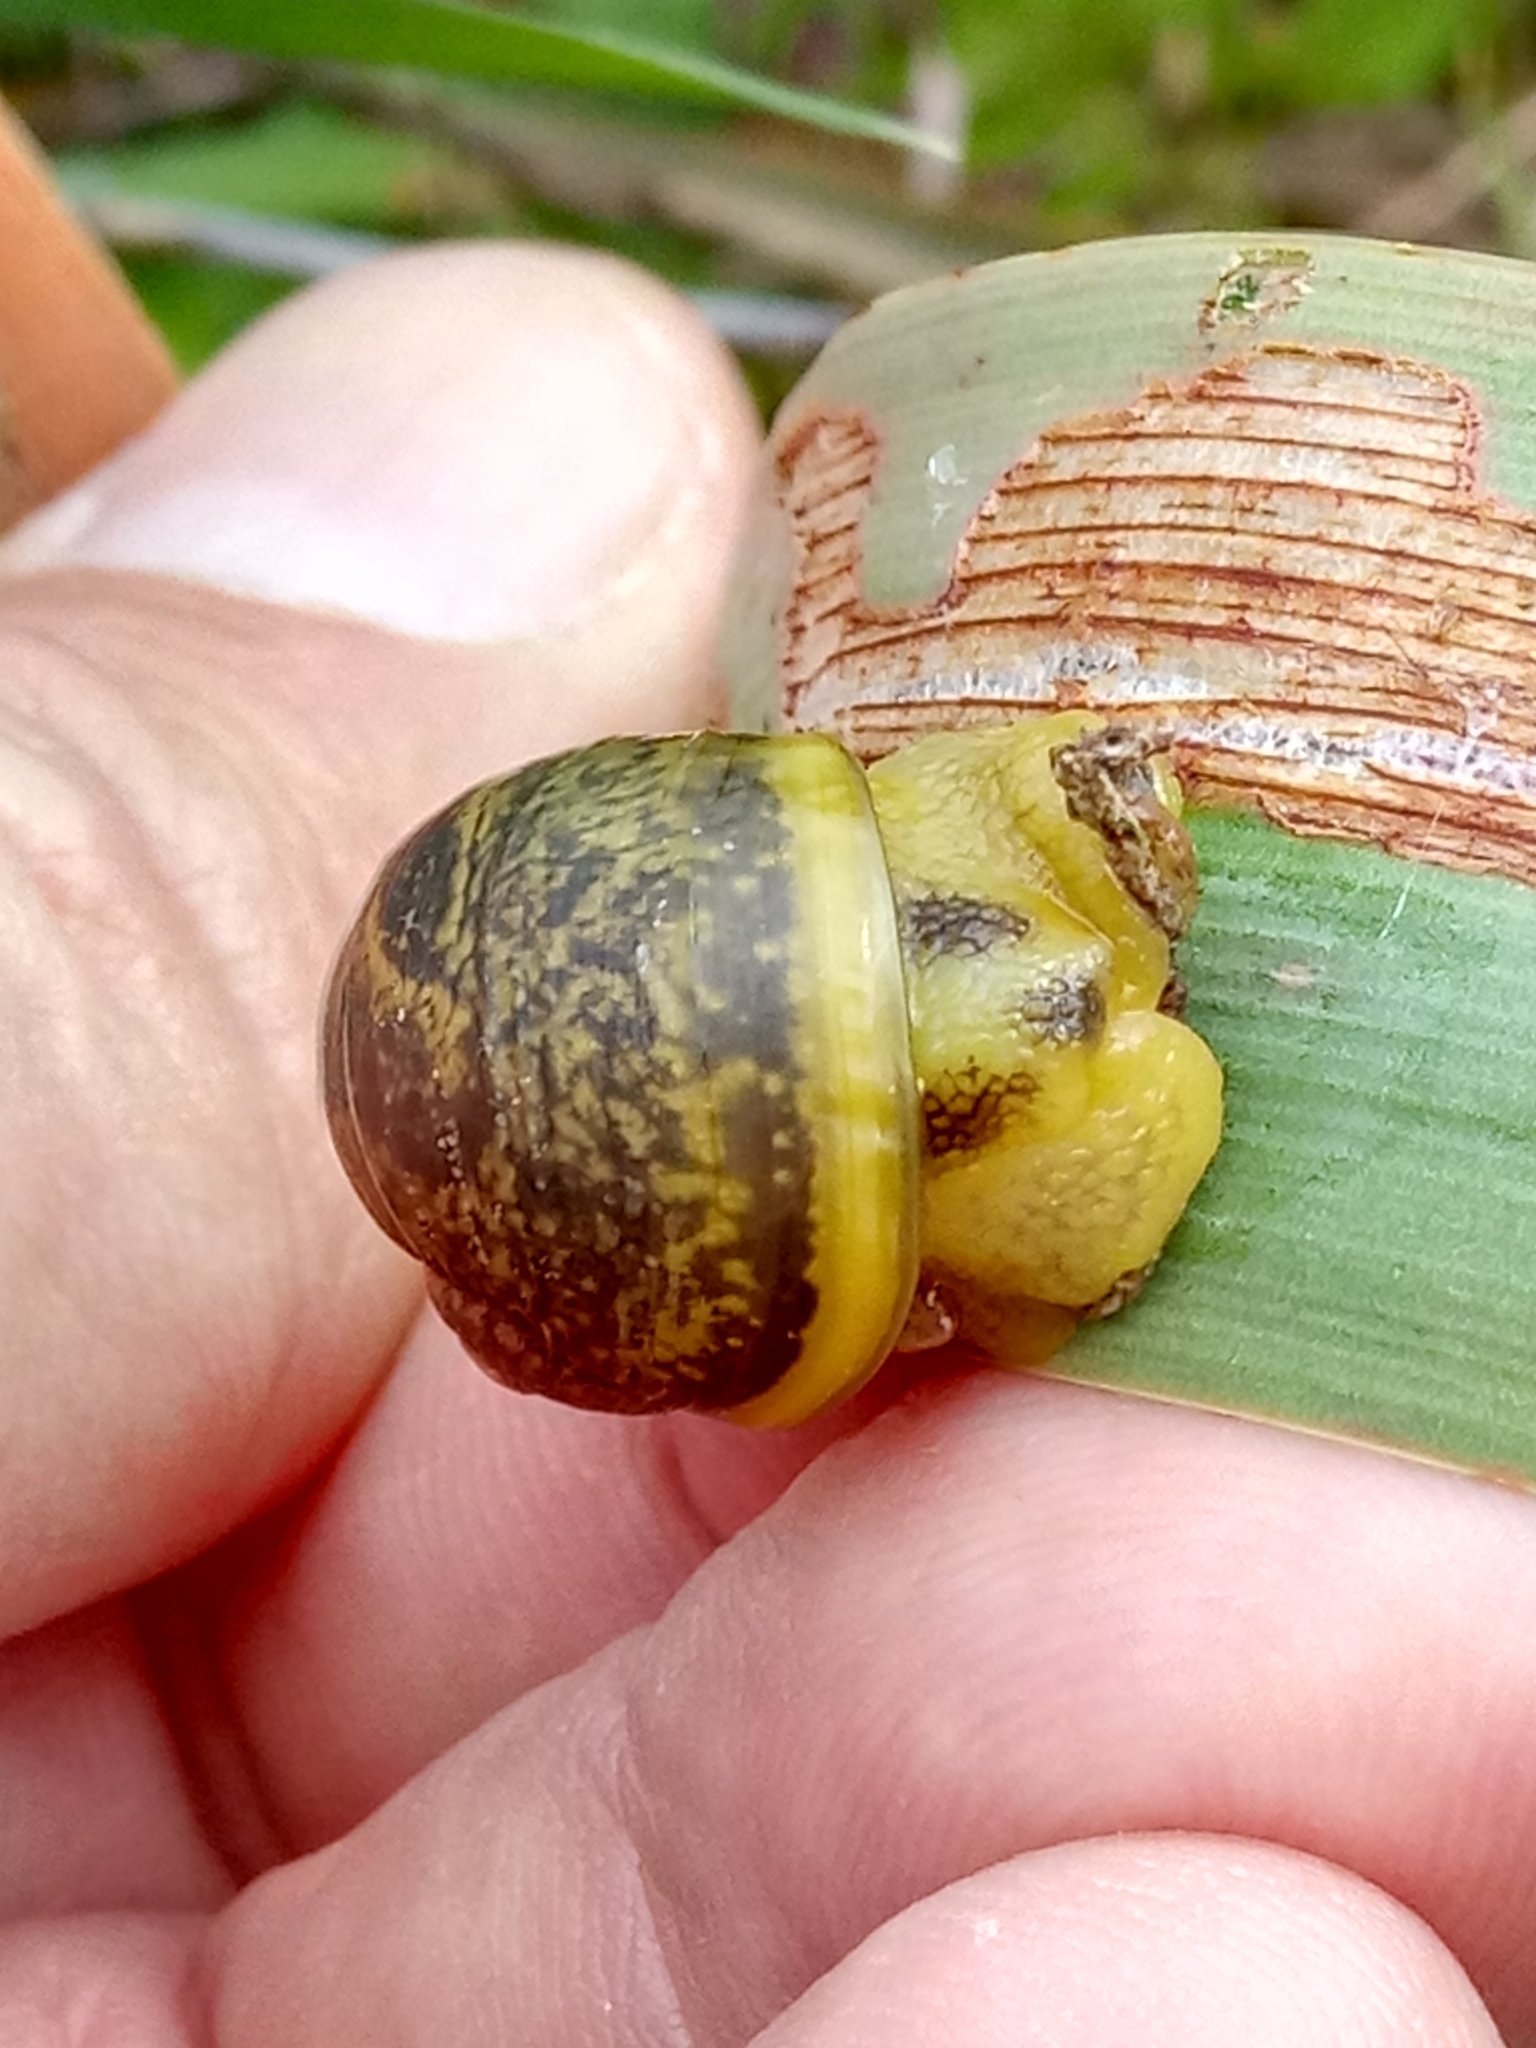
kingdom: Animalia
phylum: Mollusca
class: Gastropoda
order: Stylommatophora
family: Helicidae
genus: Cantareus
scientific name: Cantareus apertus
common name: Green gardensnail
